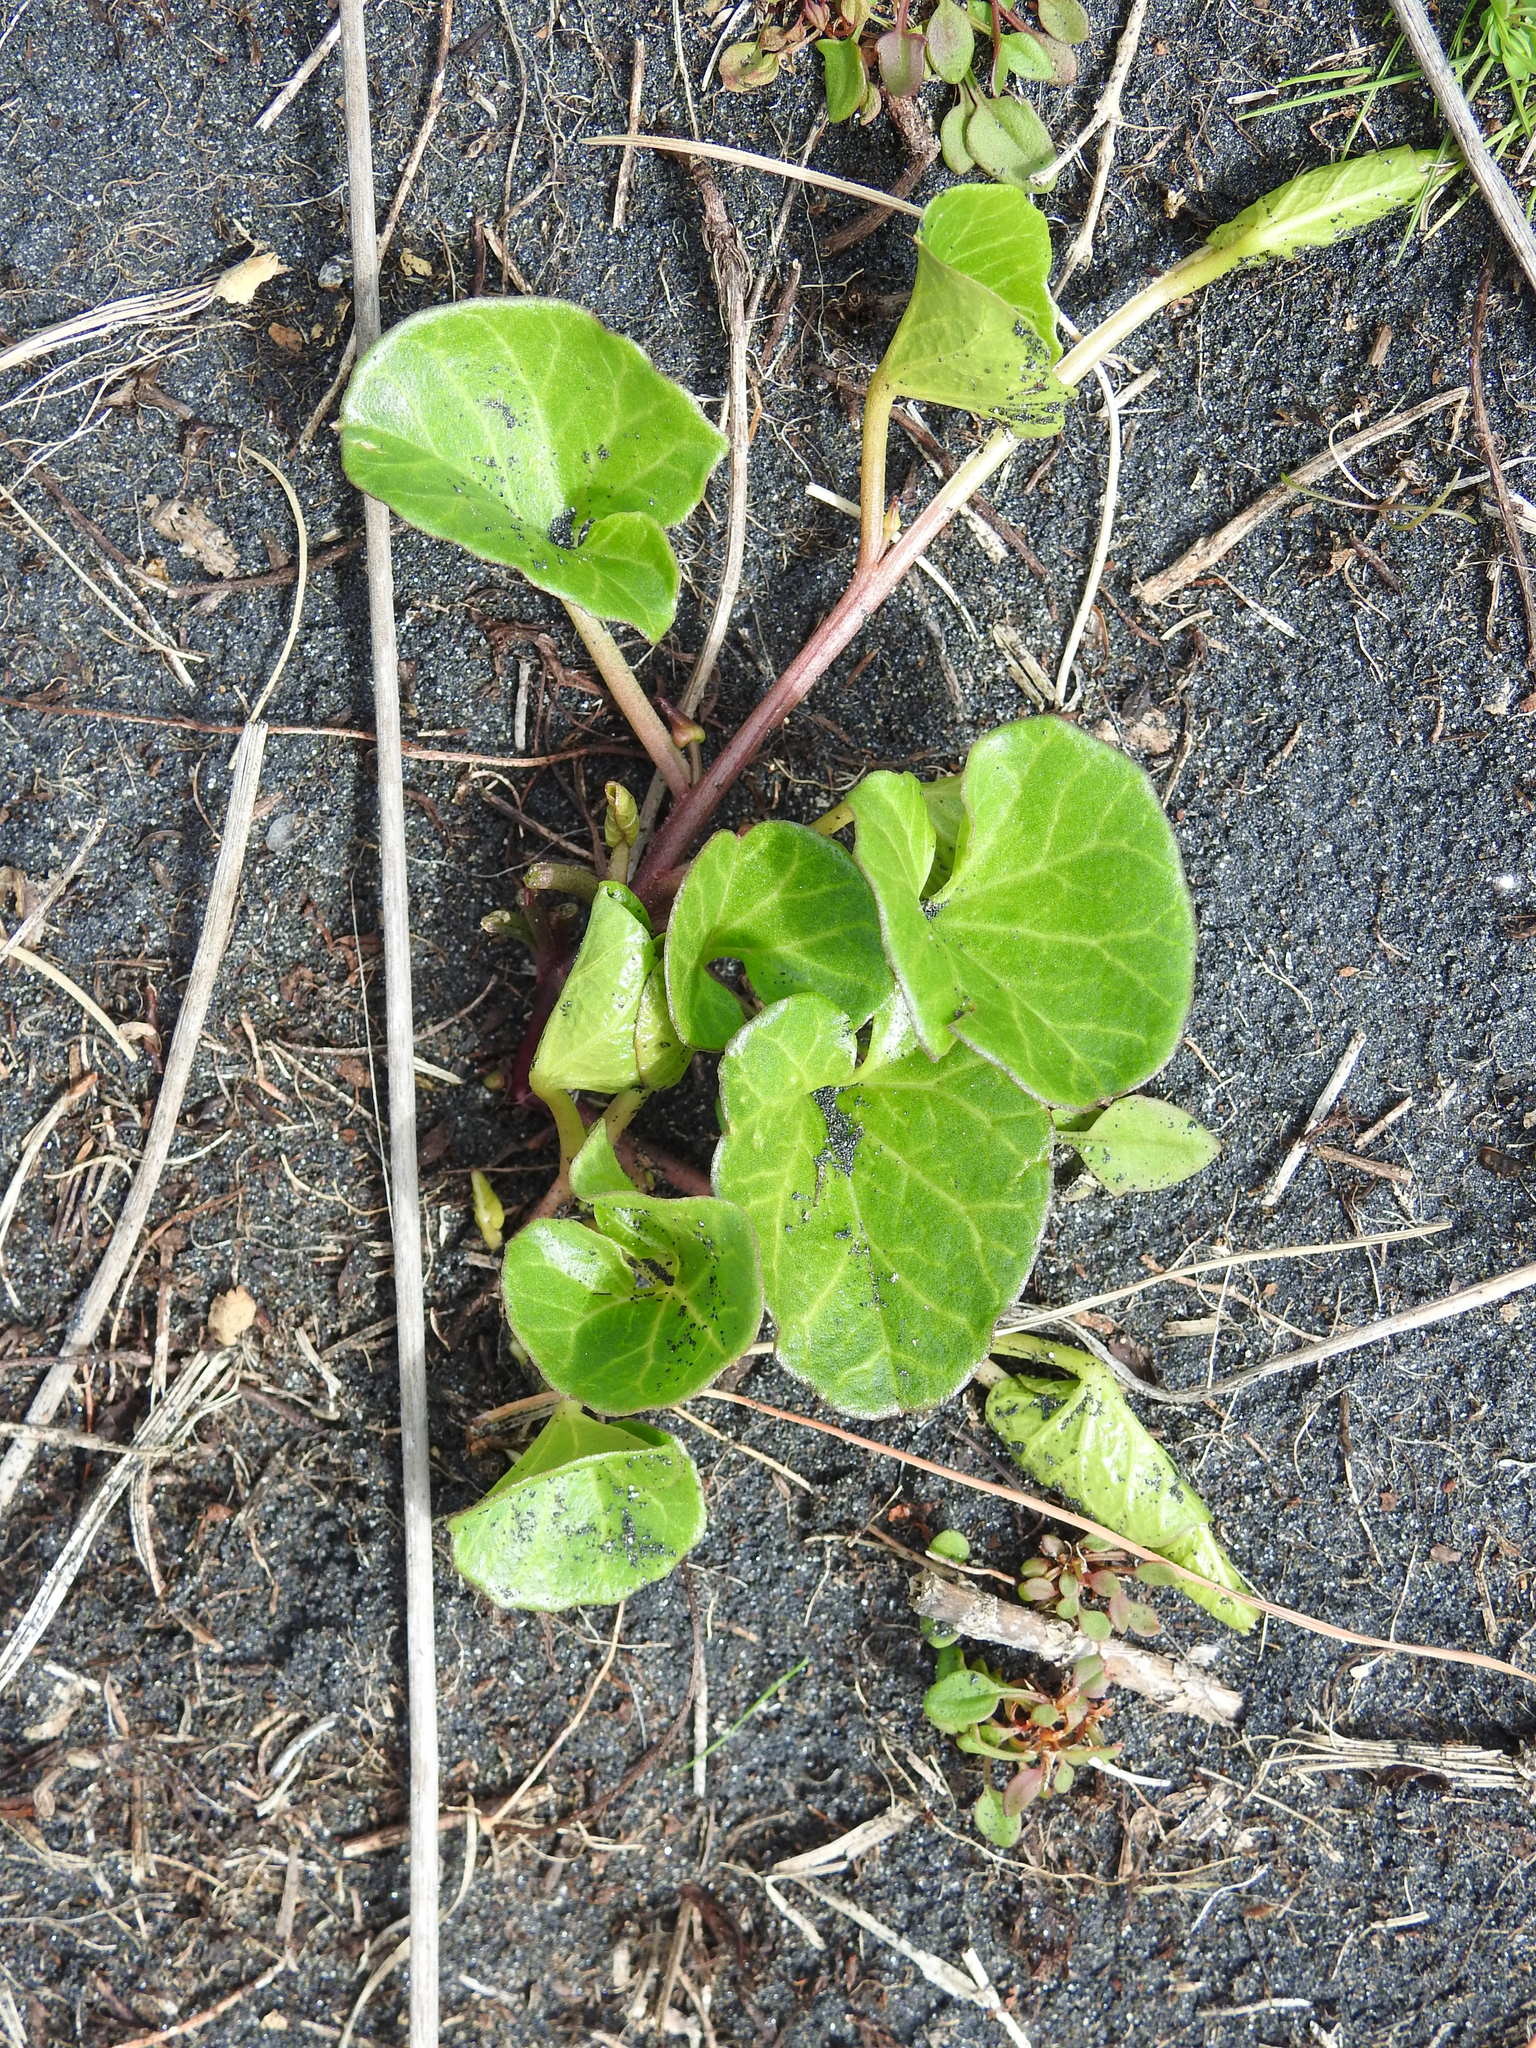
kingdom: Plantae
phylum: Tracheophyta
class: Magnoliopsida
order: Solanales
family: Convolvulaceae
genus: Calystegia
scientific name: Calystegia soldanella
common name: Sea bindweed
